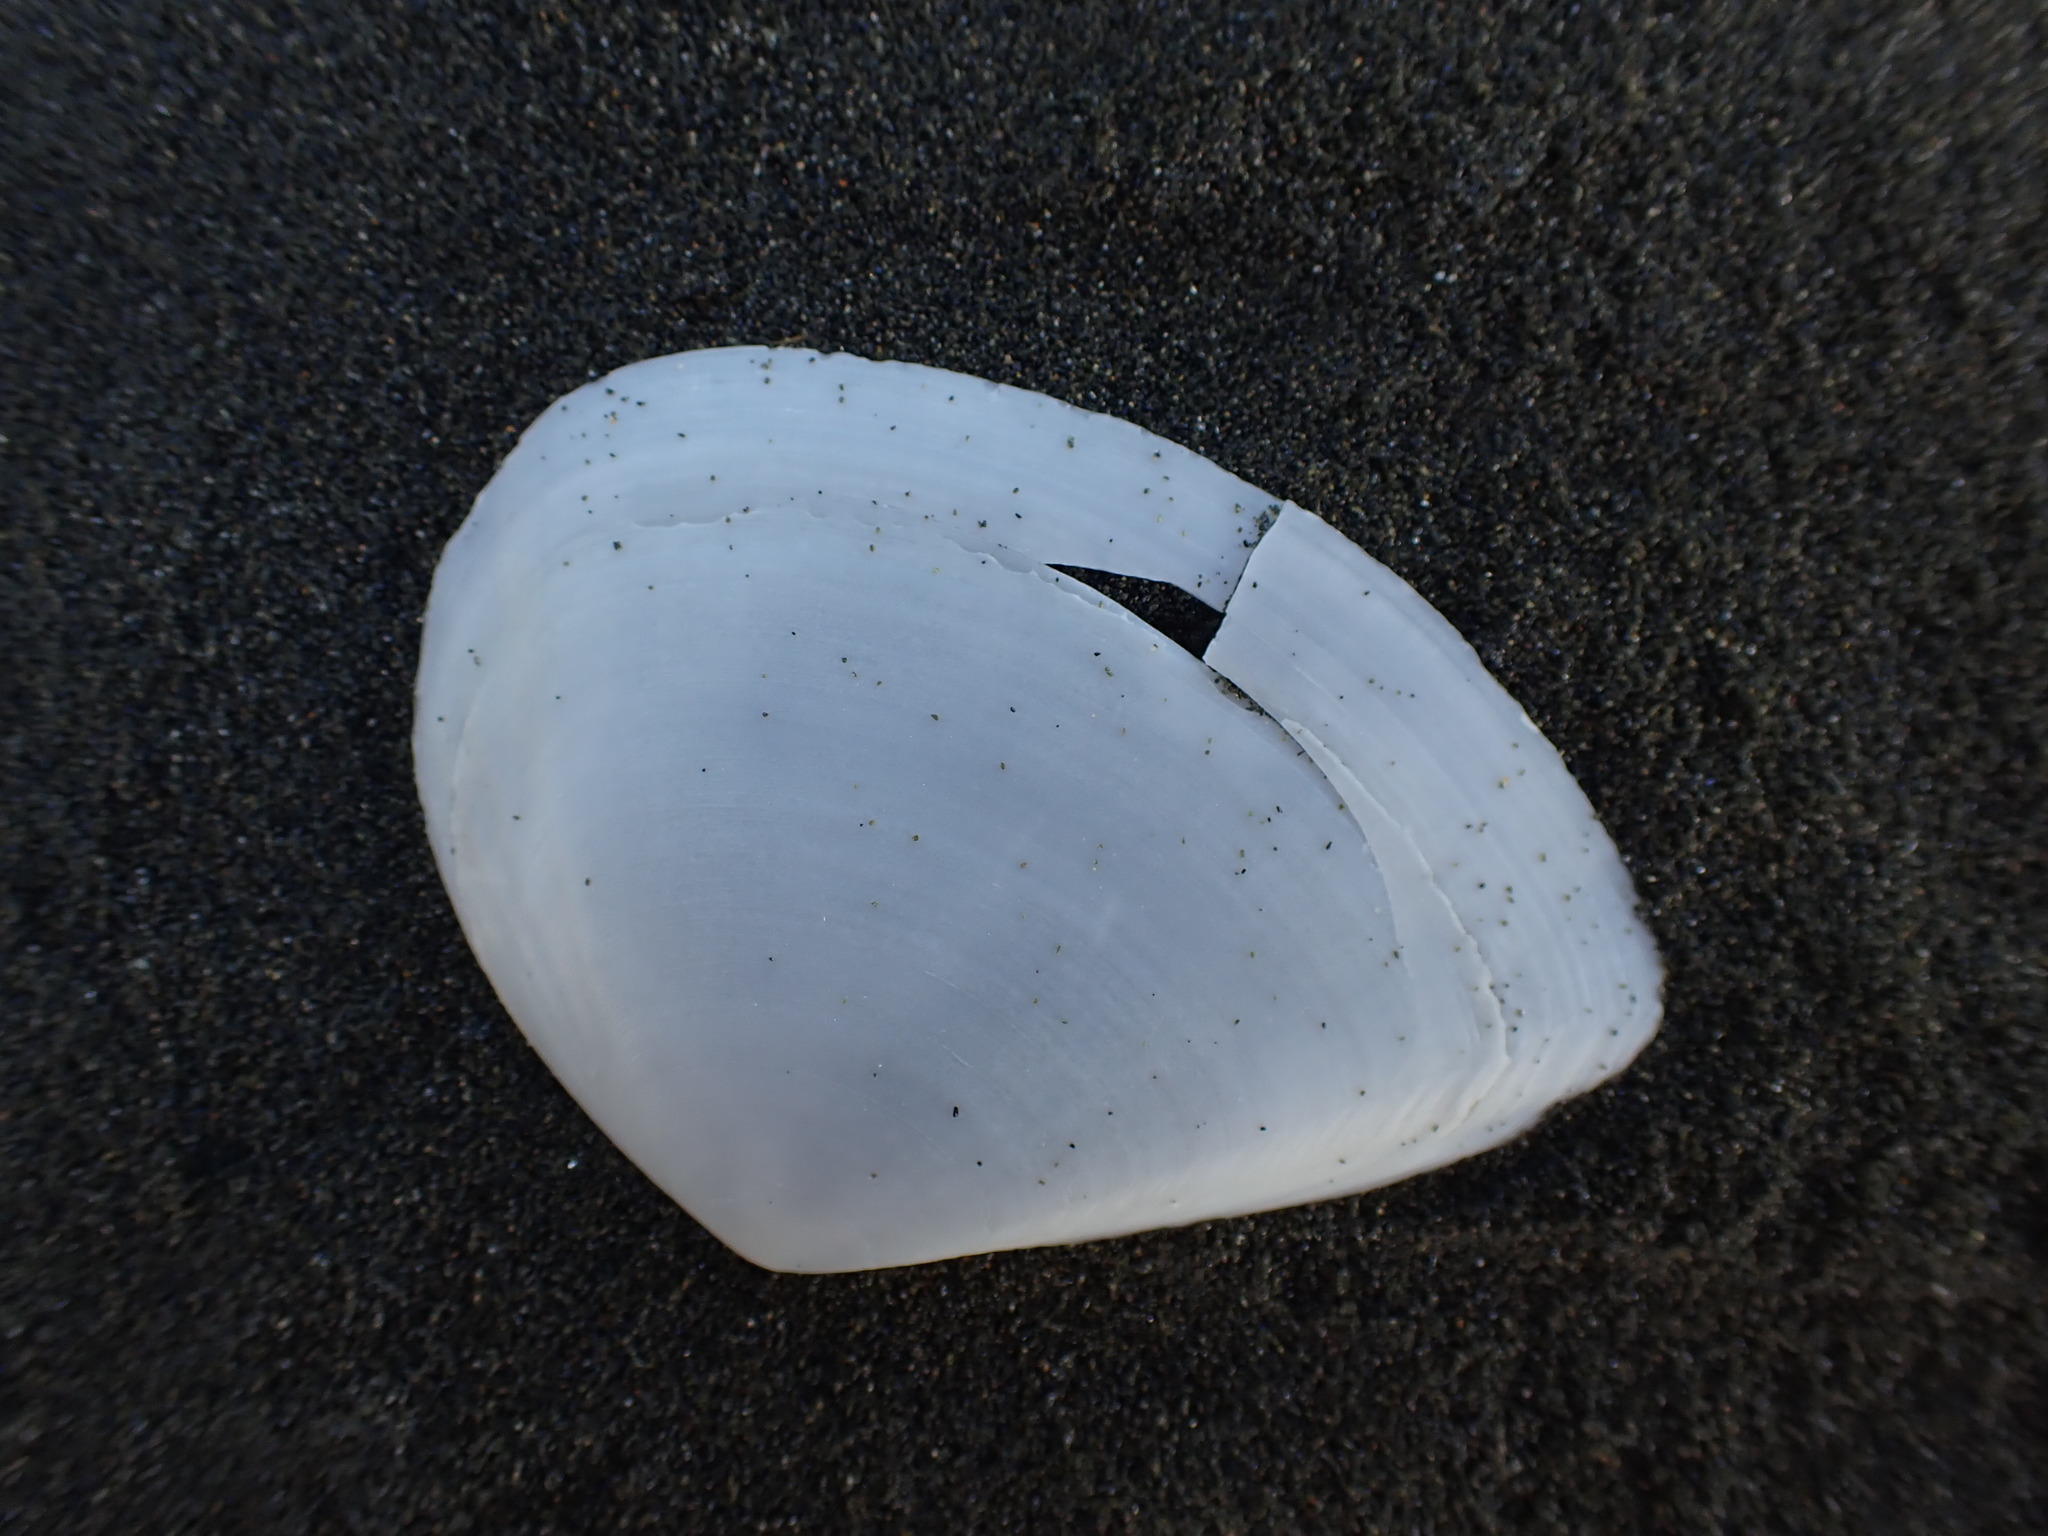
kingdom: Animalia
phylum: Mollusca
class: Bivalvia
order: Cardiida
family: Tellinidae
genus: Bartschicoma
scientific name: Bartschicoma gaimardi
